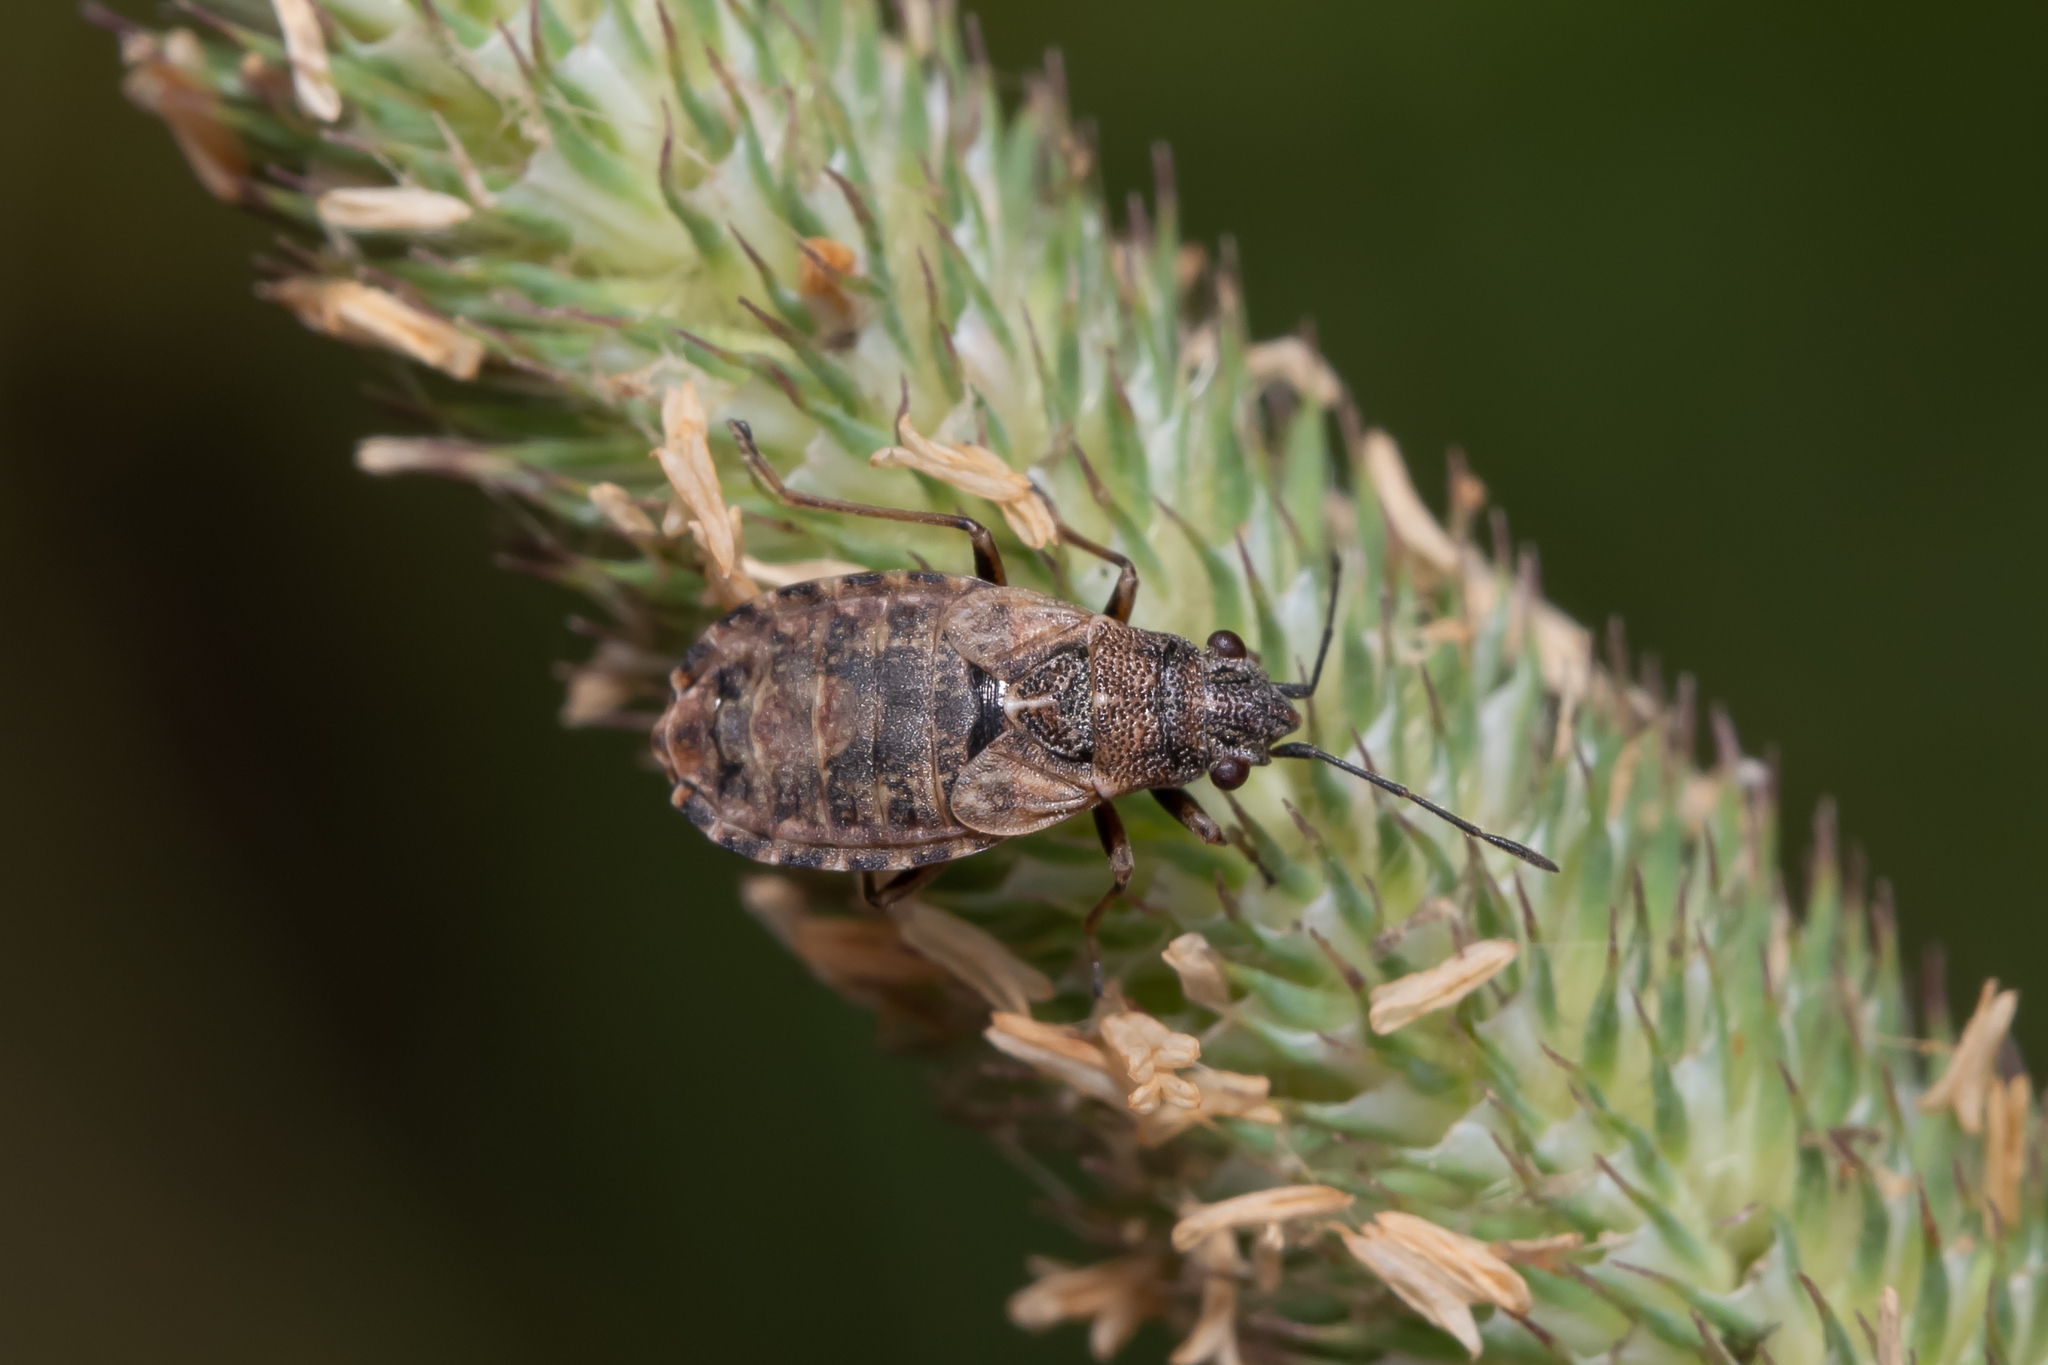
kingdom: Animalia
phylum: Arthropoda
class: Insecta
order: Hemiptera
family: Lygaeidae
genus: Nithecus
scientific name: Nithecus jacobaeae
